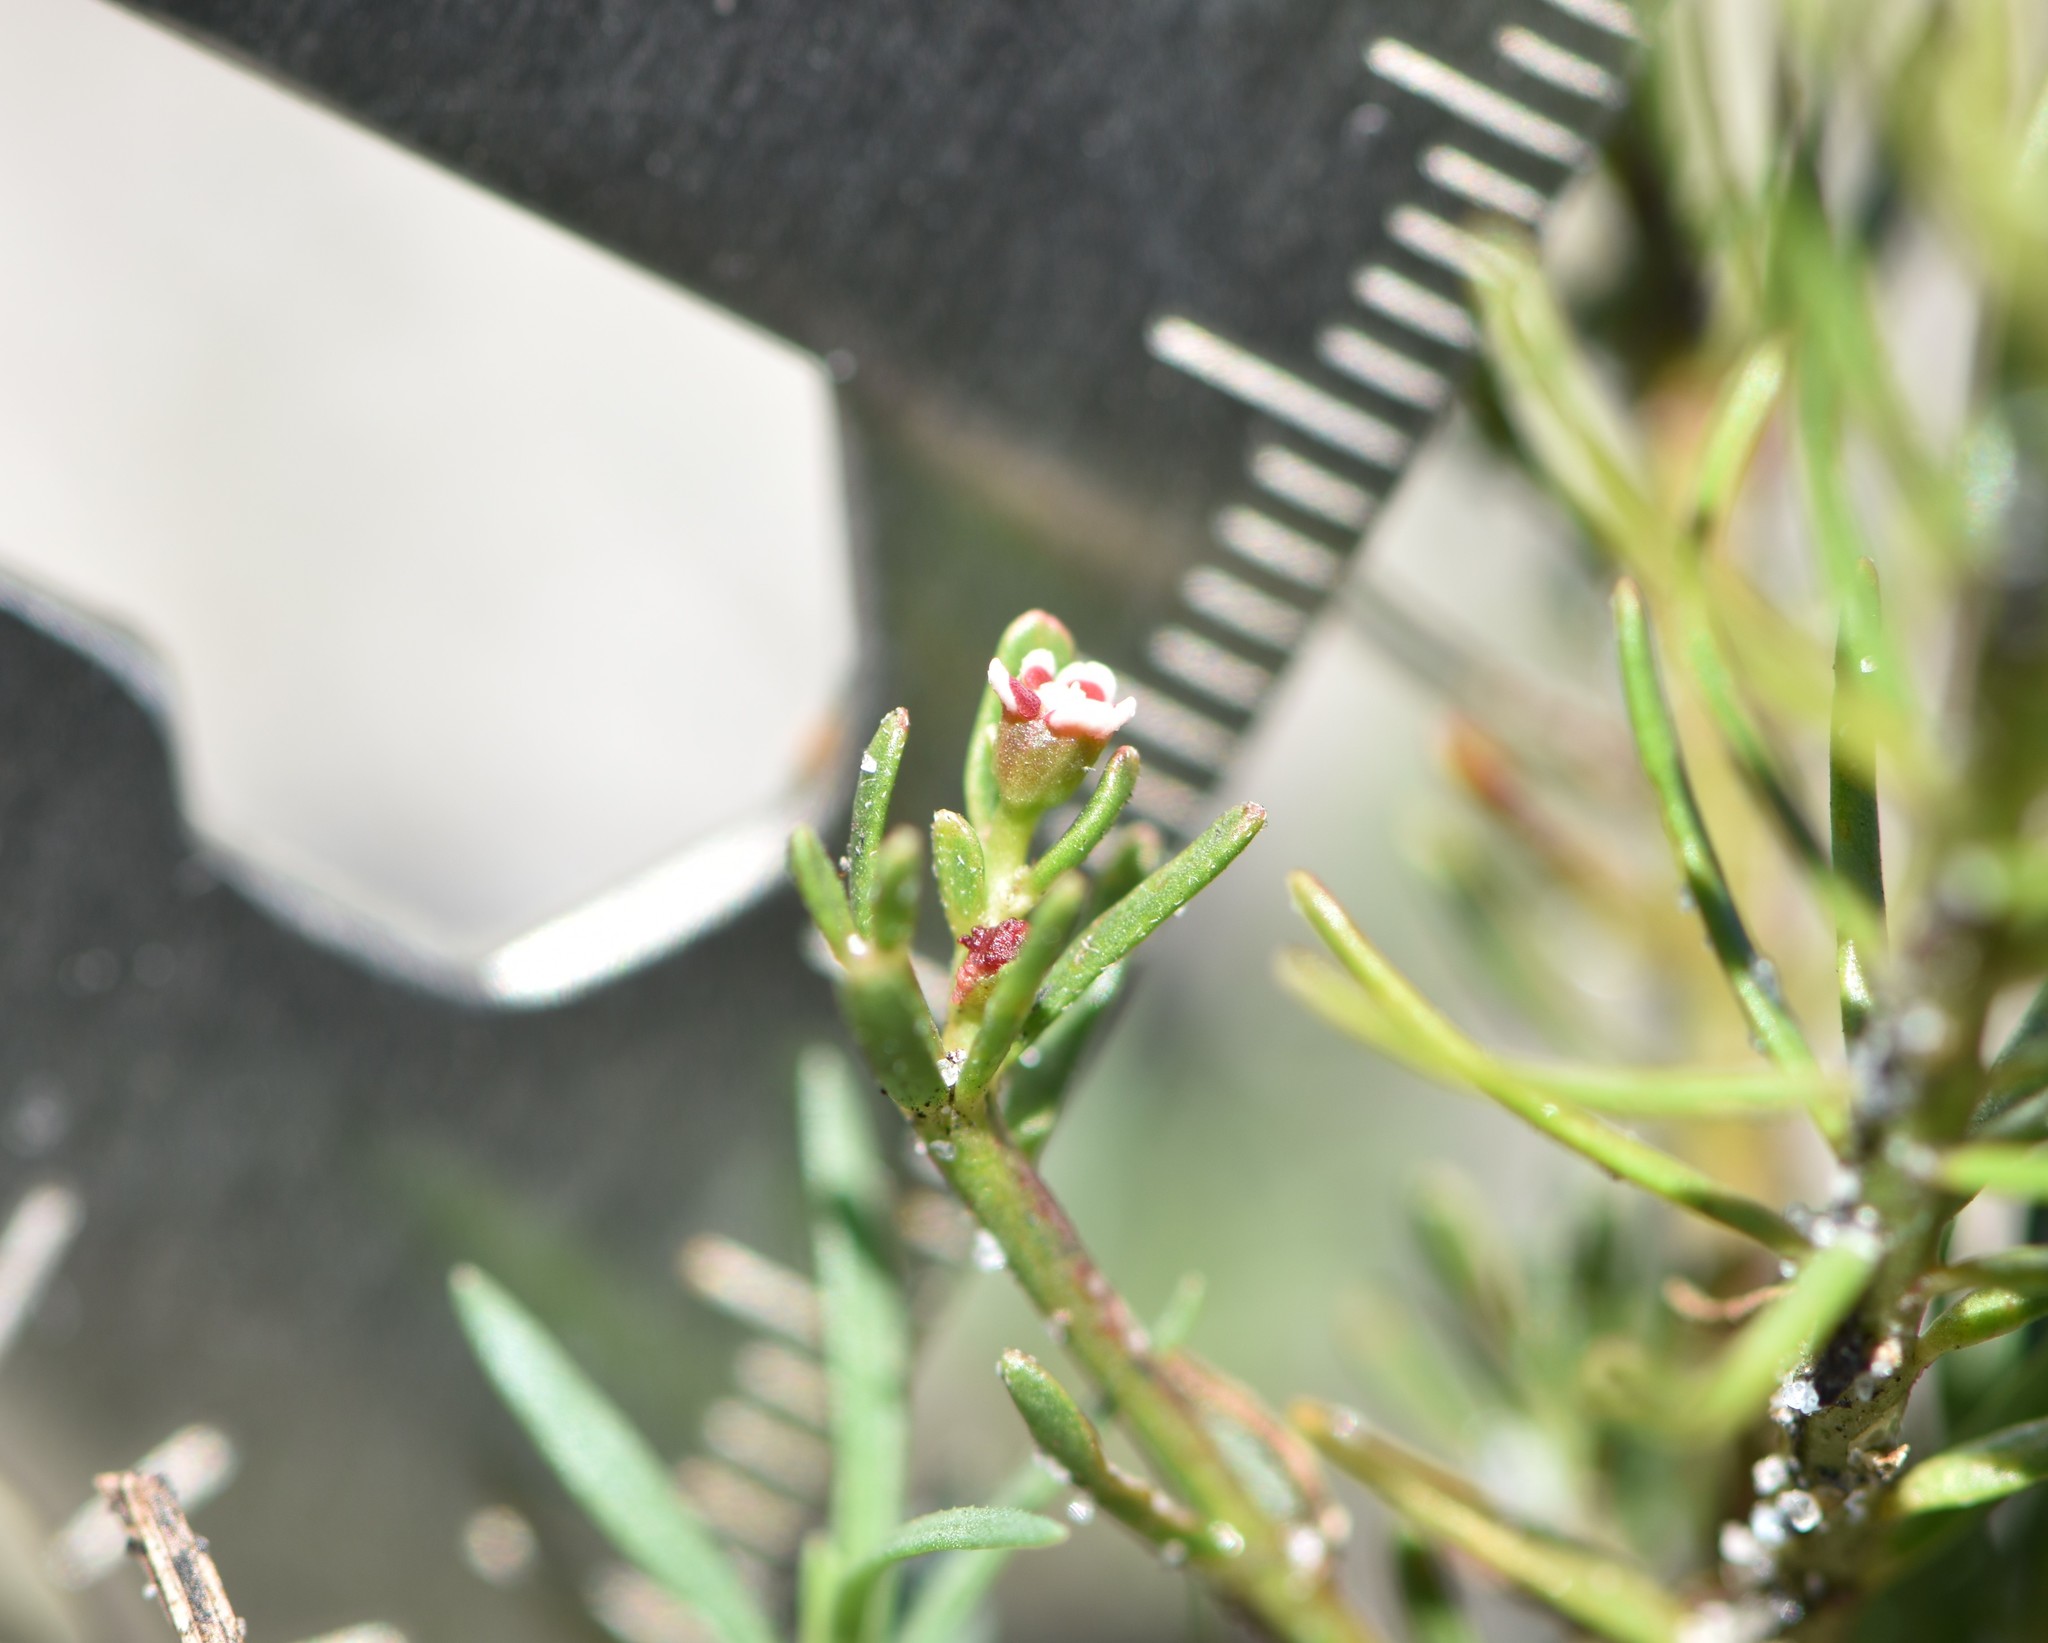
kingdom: Plantae
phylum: Tracheophyta
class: Magnoliopsida
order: Malpighiales
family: Euphorbiaceae
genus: Euphorbia
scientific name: Euphorbia polyphylla
